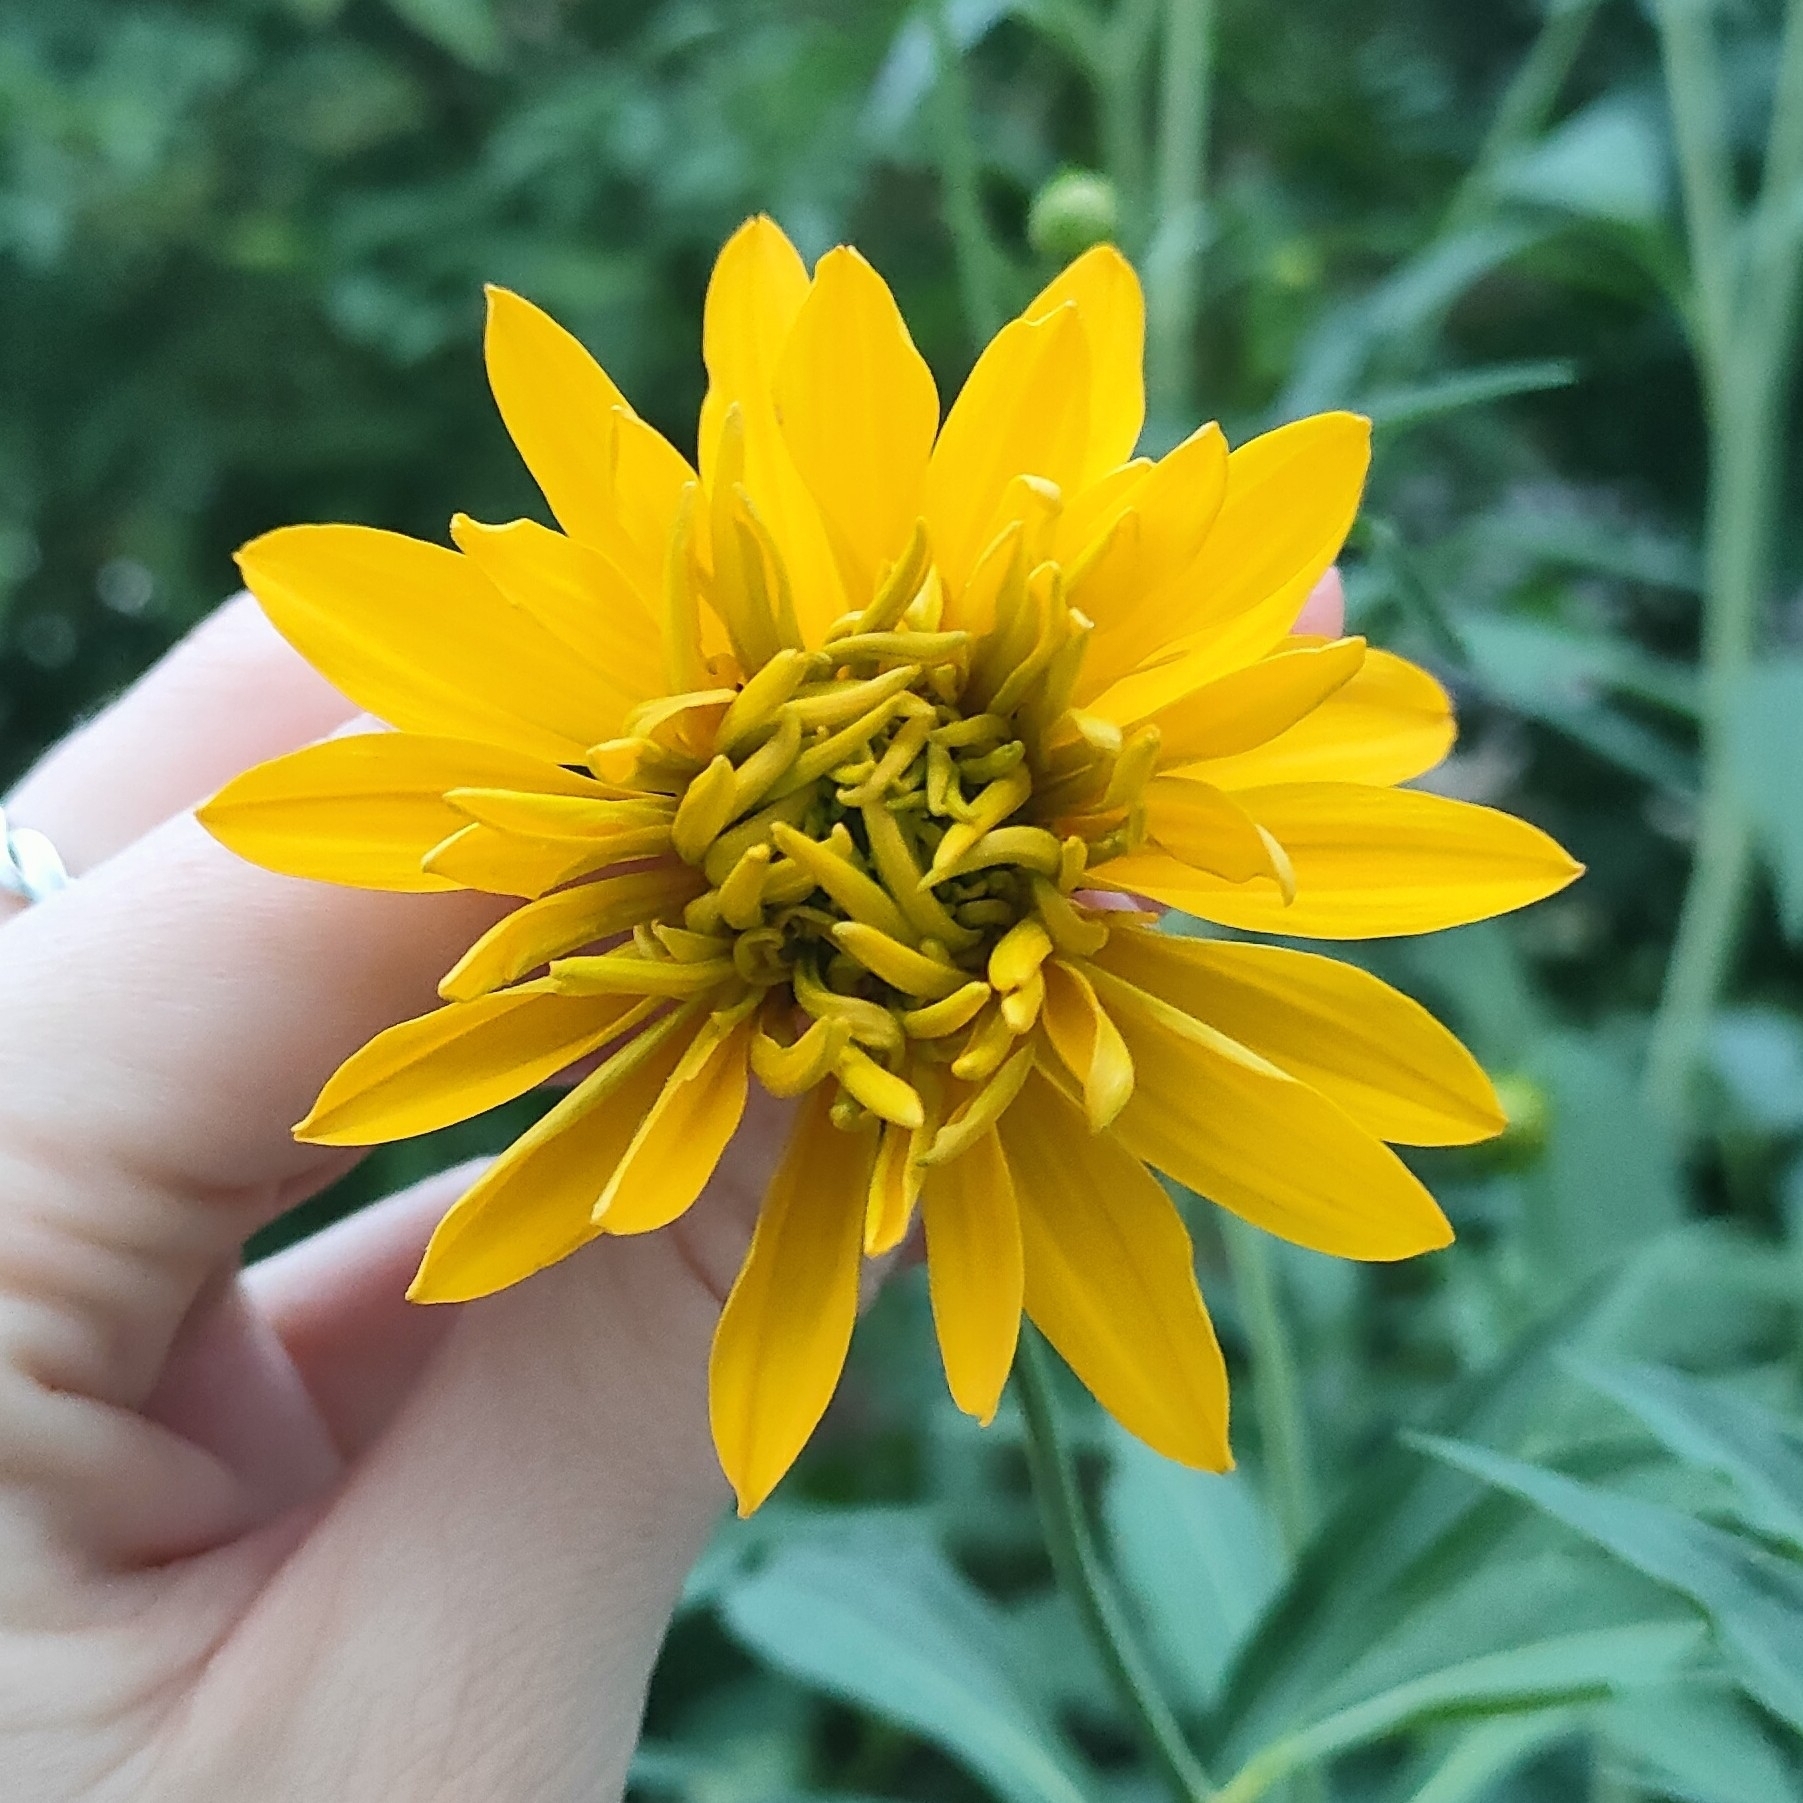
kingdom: Plantae
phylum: Tracheophyta
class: Magnoliopsida
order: Asterales
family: Asteraceae
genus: Rudbeckia
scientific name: Rudbeckia laciniata
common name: Coneflower
